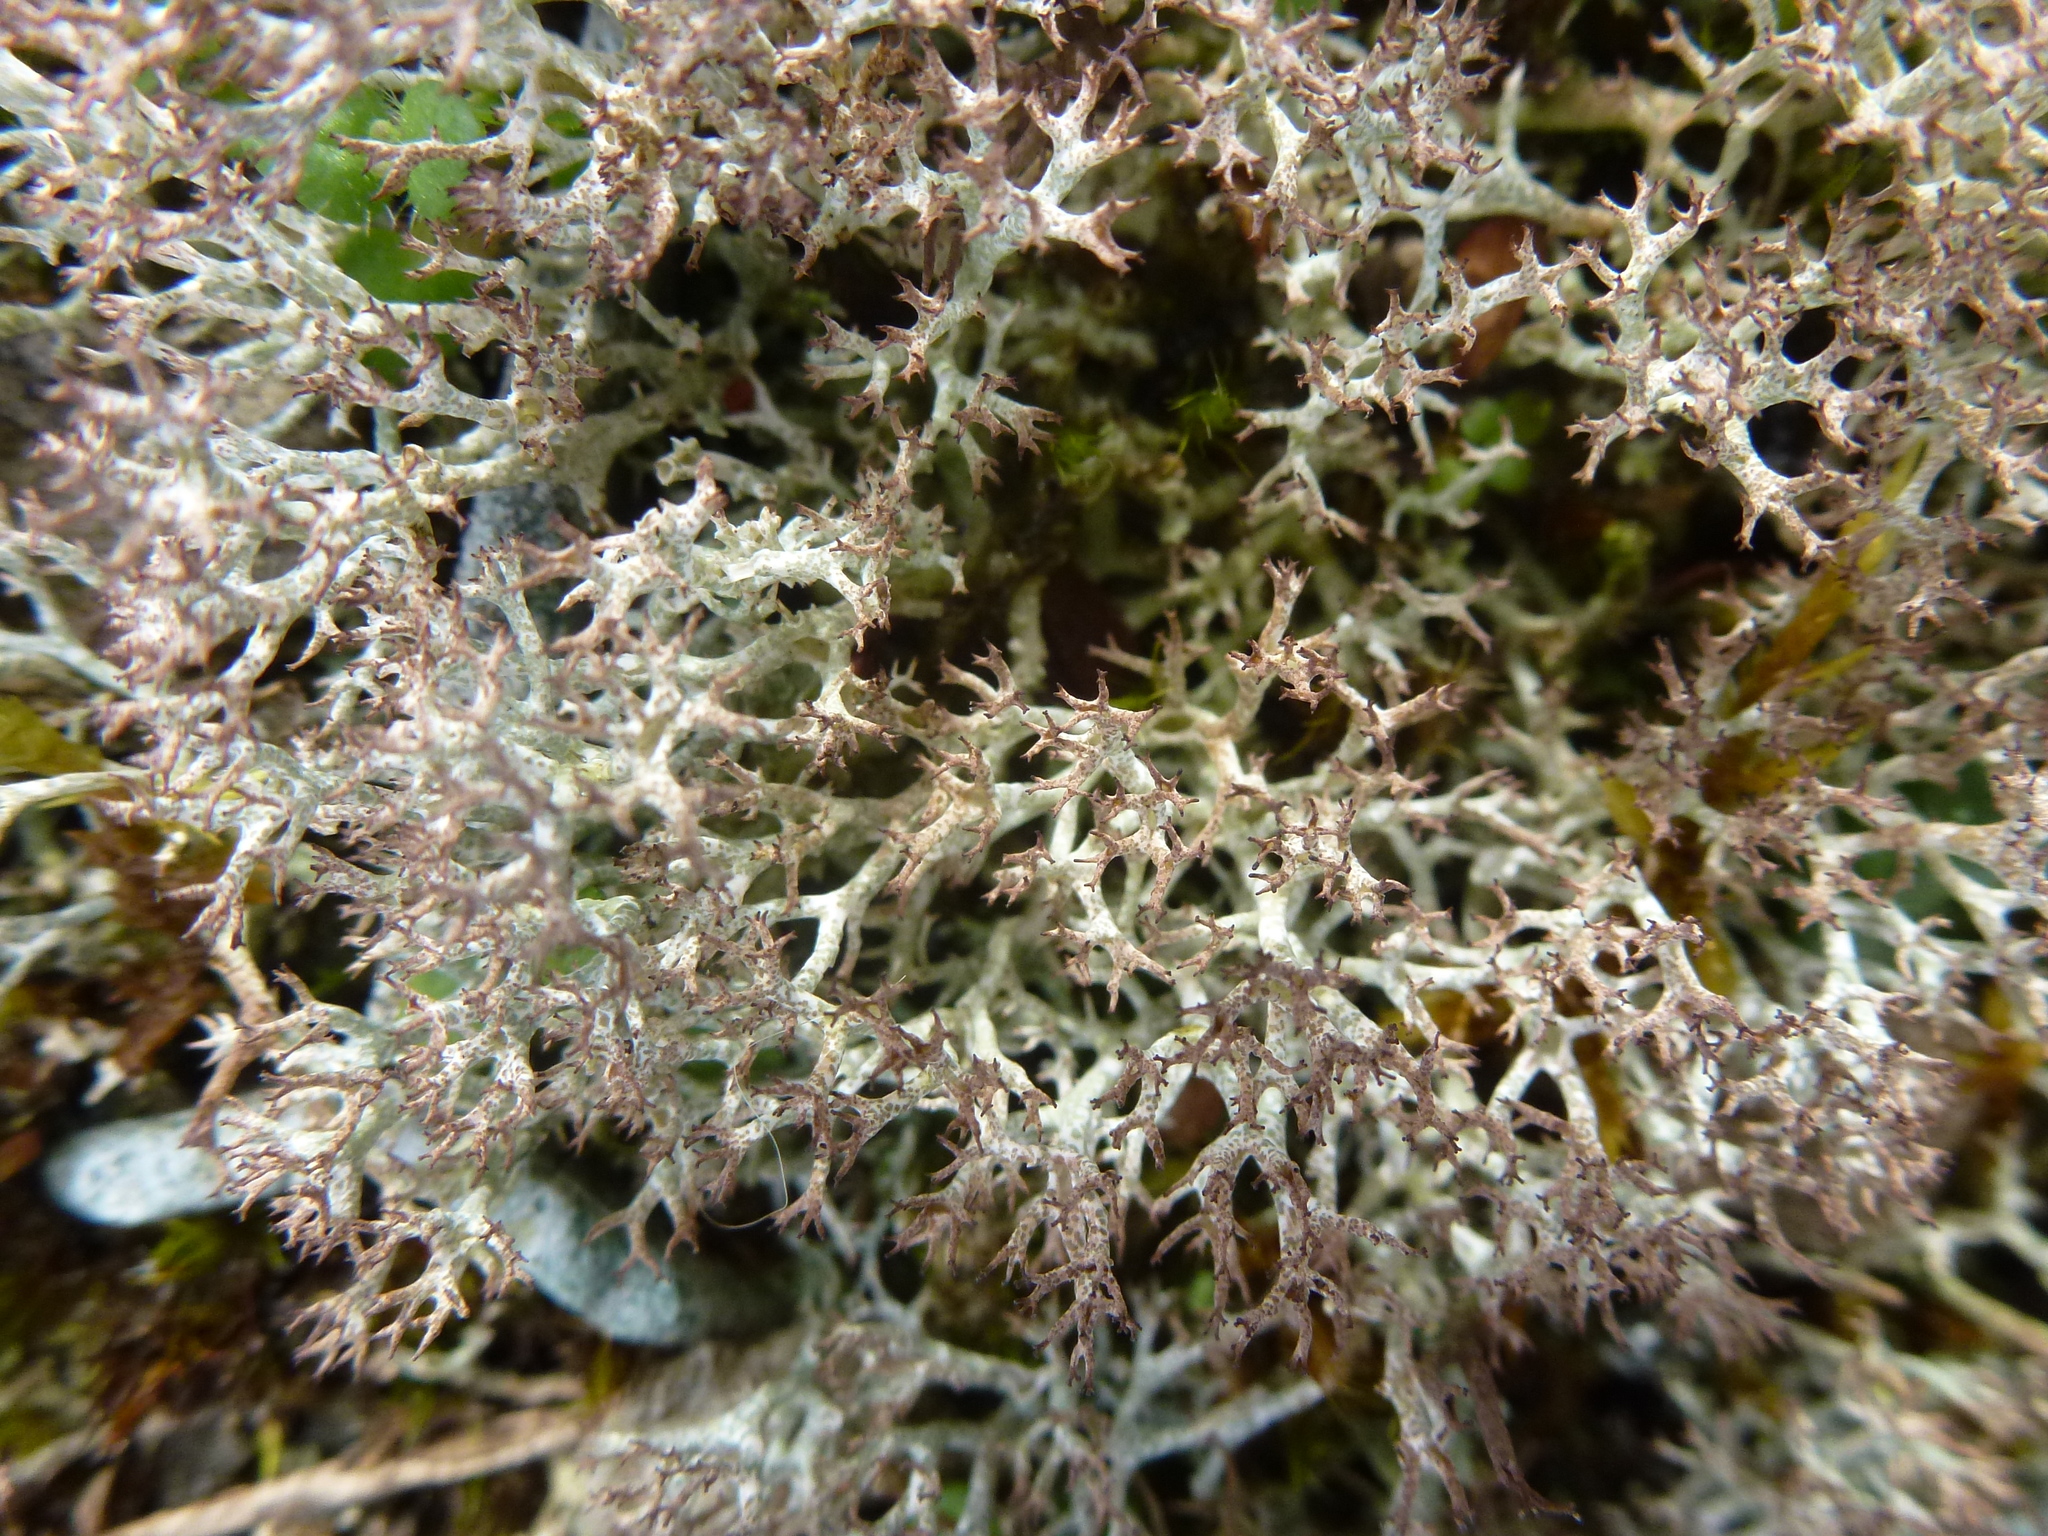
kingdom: Fungi
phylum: Ascomycota
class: Lecanoromycetes
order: Lecanorales
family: Cladoniaceae
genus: Cladonia
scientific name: Cladonia rangiformis
